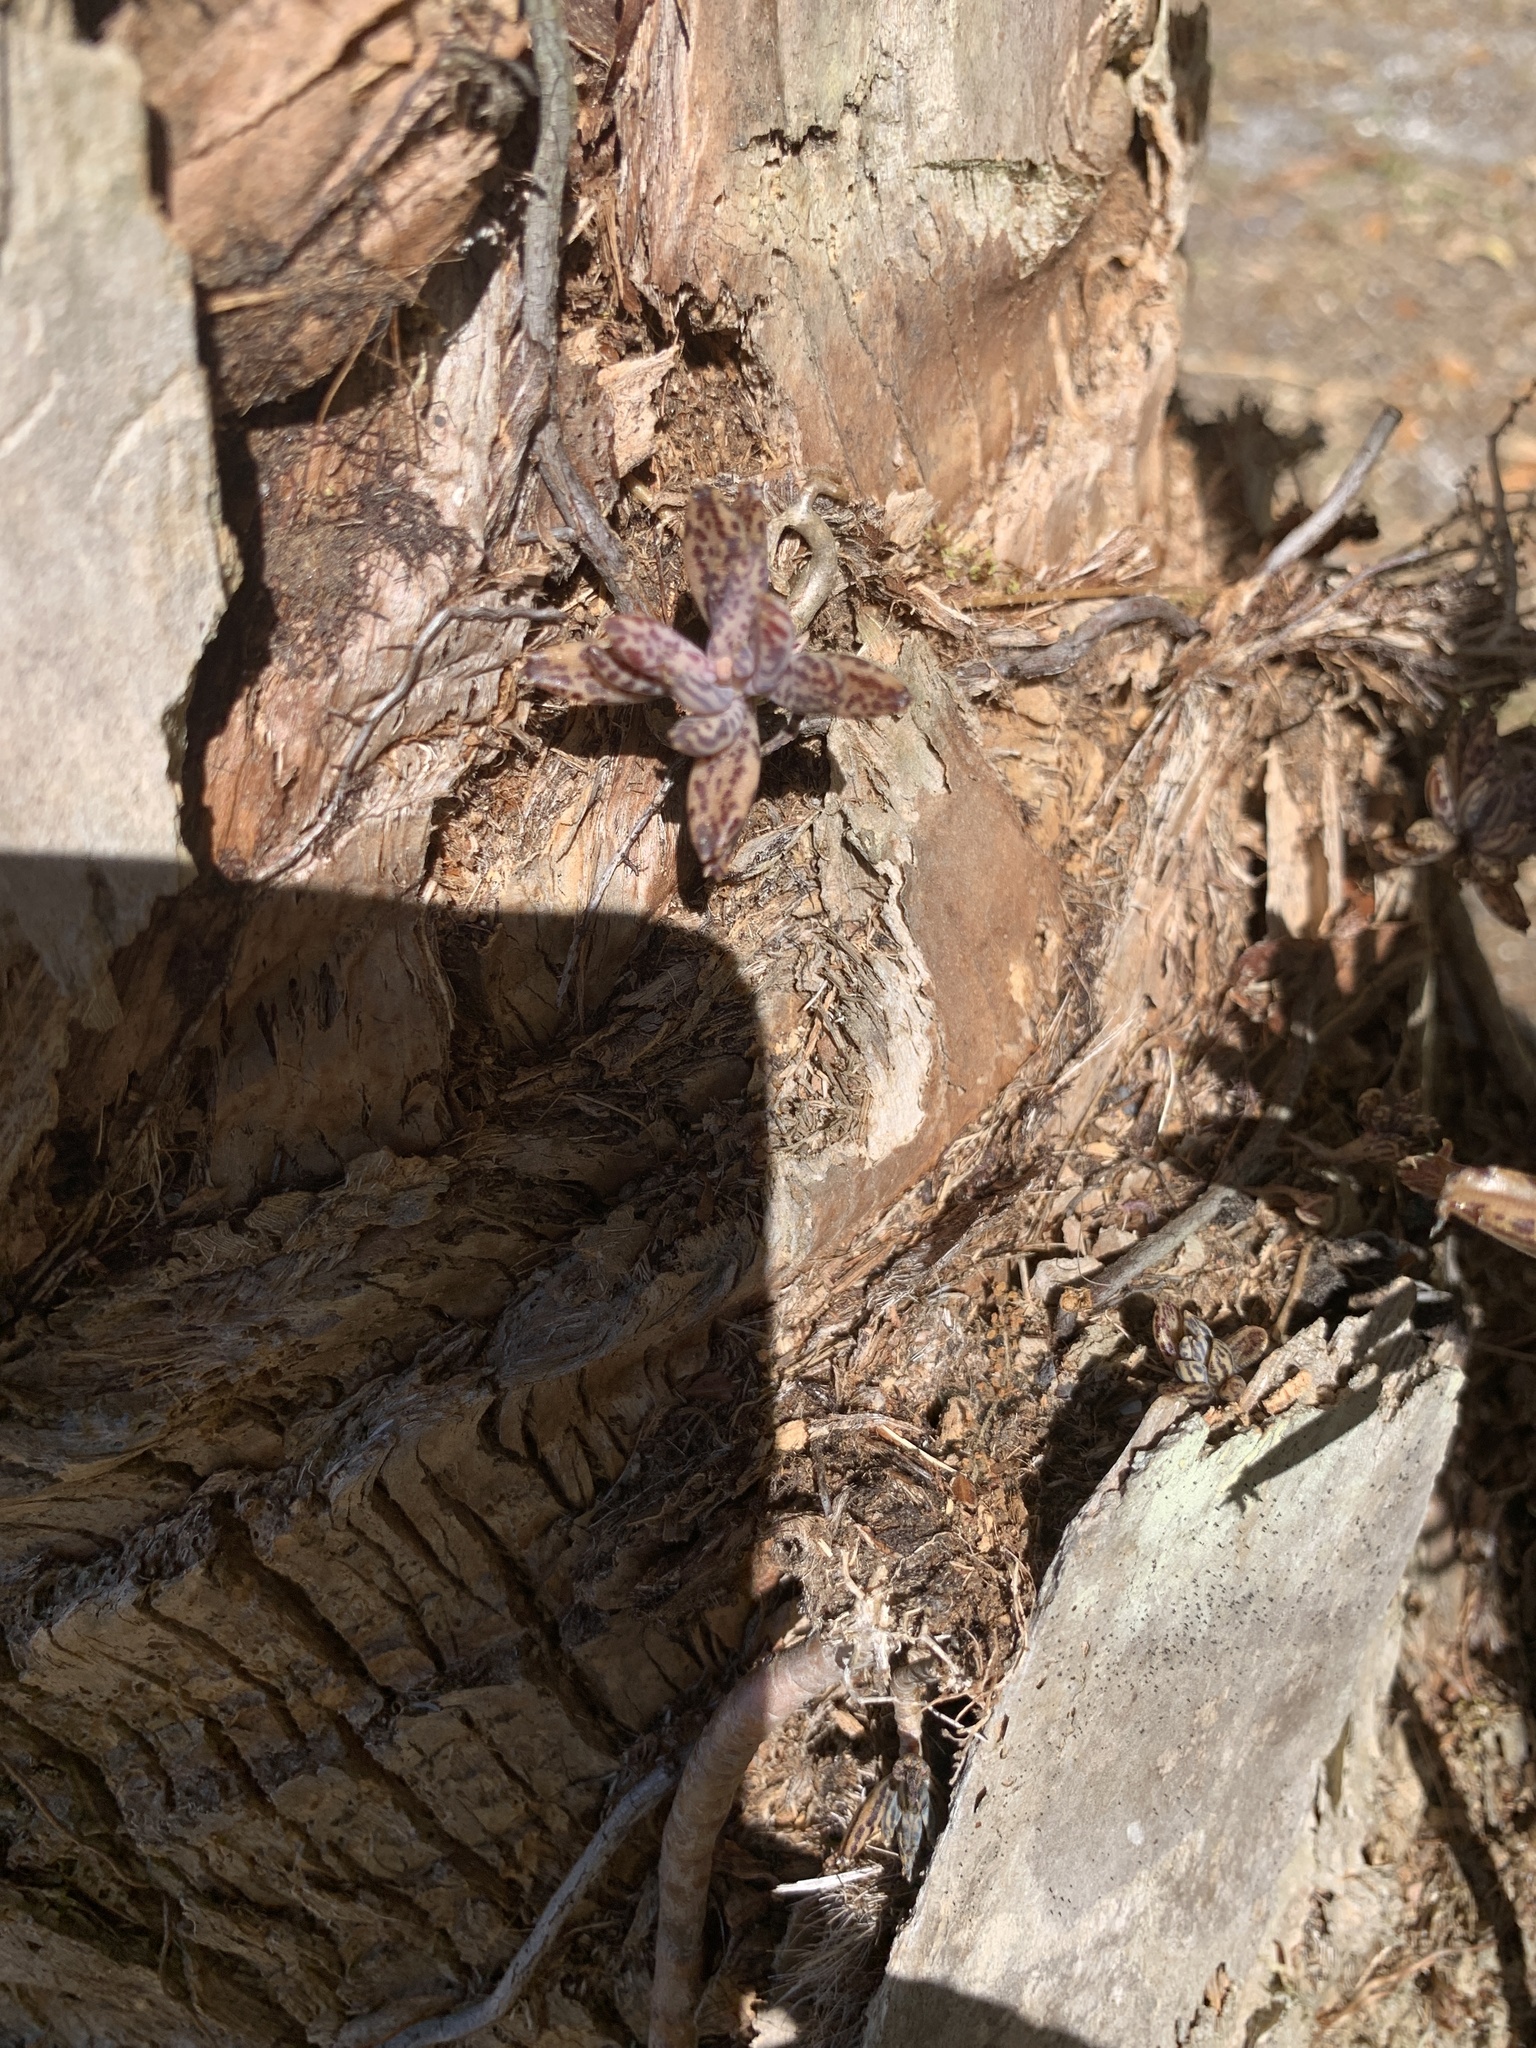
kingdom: Plantae
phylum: Tracheophyta
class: Magnoliopsida
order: Saxifragales
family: Crassulaceae
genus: Kalanchoe
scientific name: Kalanchoe delagoensis
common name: Chandelier plant
